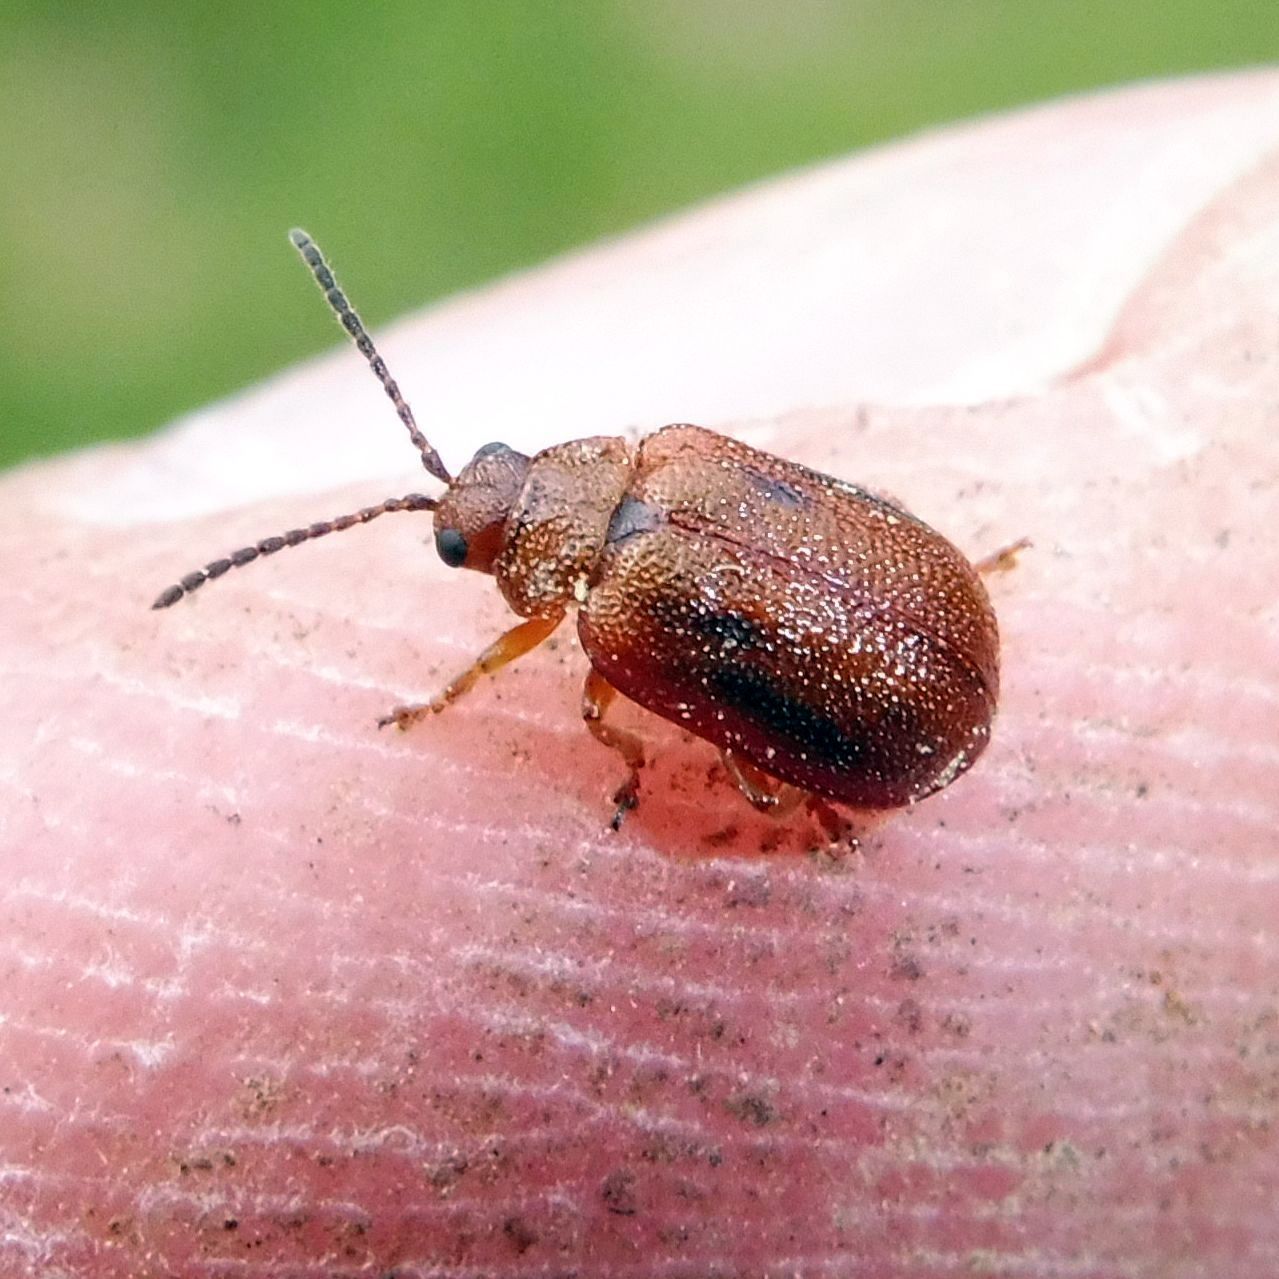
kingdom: Animalia
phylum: Arthropoda
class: Insecta
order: Coleoptera
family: Chrysomelidae
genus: Lochmaea
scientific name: Lochmaea crataegi
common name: Hawthorn leaf beetle
